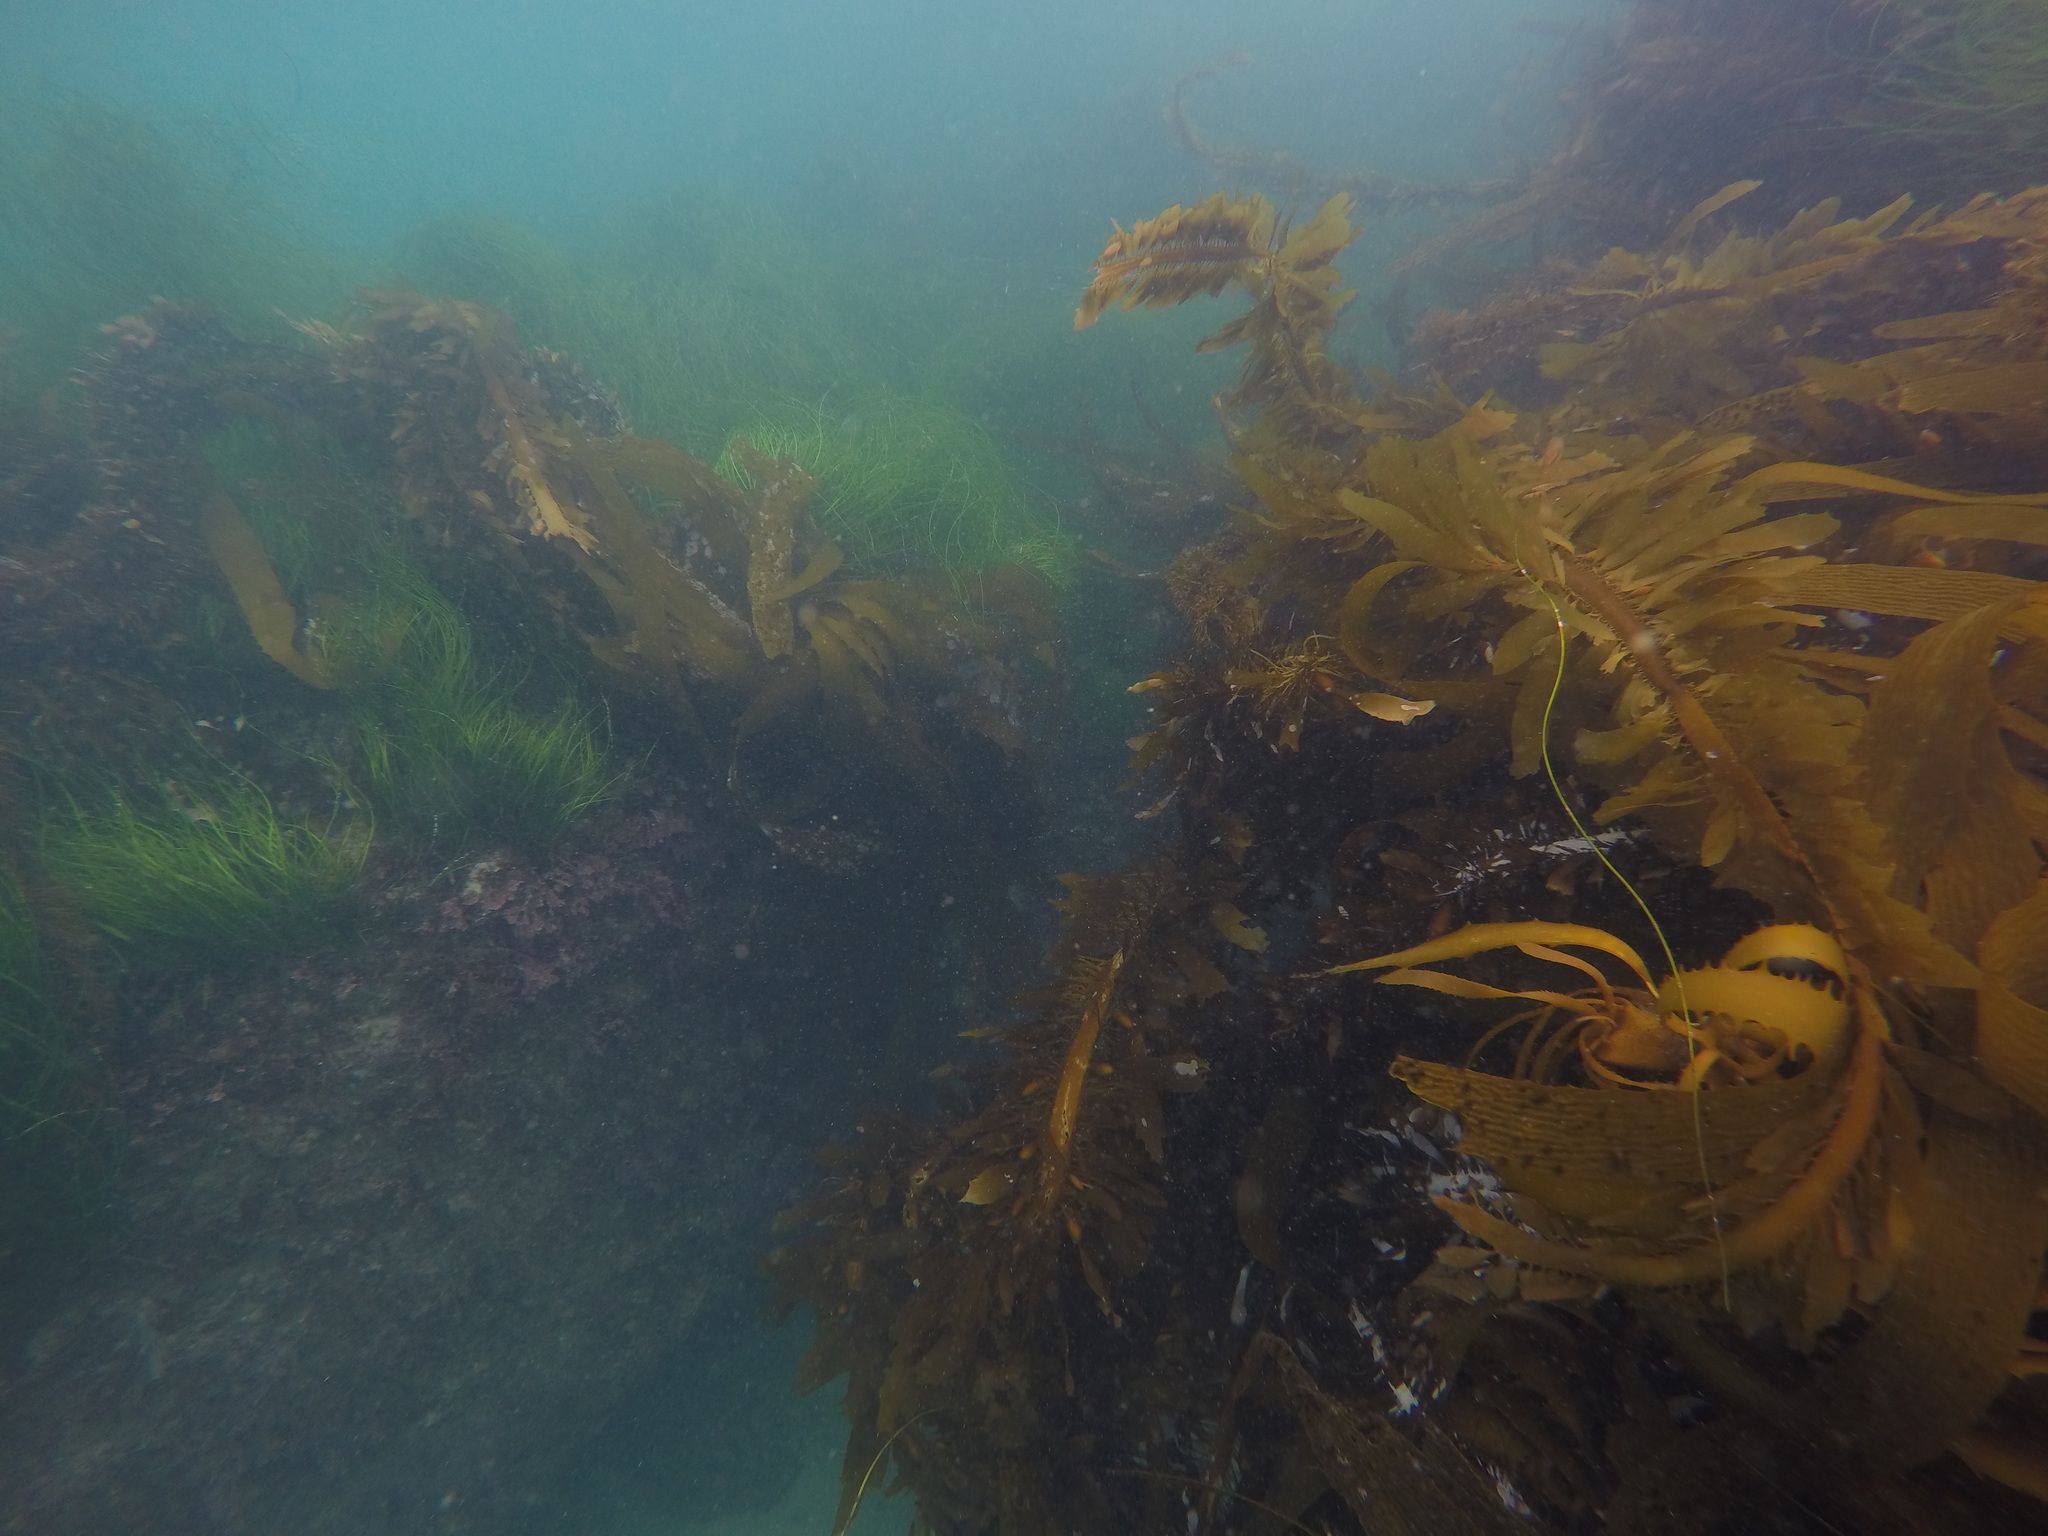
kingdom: Chromista
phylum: Ochrophyta
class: Phaeophyceae
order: Laminariales
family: Lessoniaceae
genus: Egregia
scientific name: Egregia menziesii
